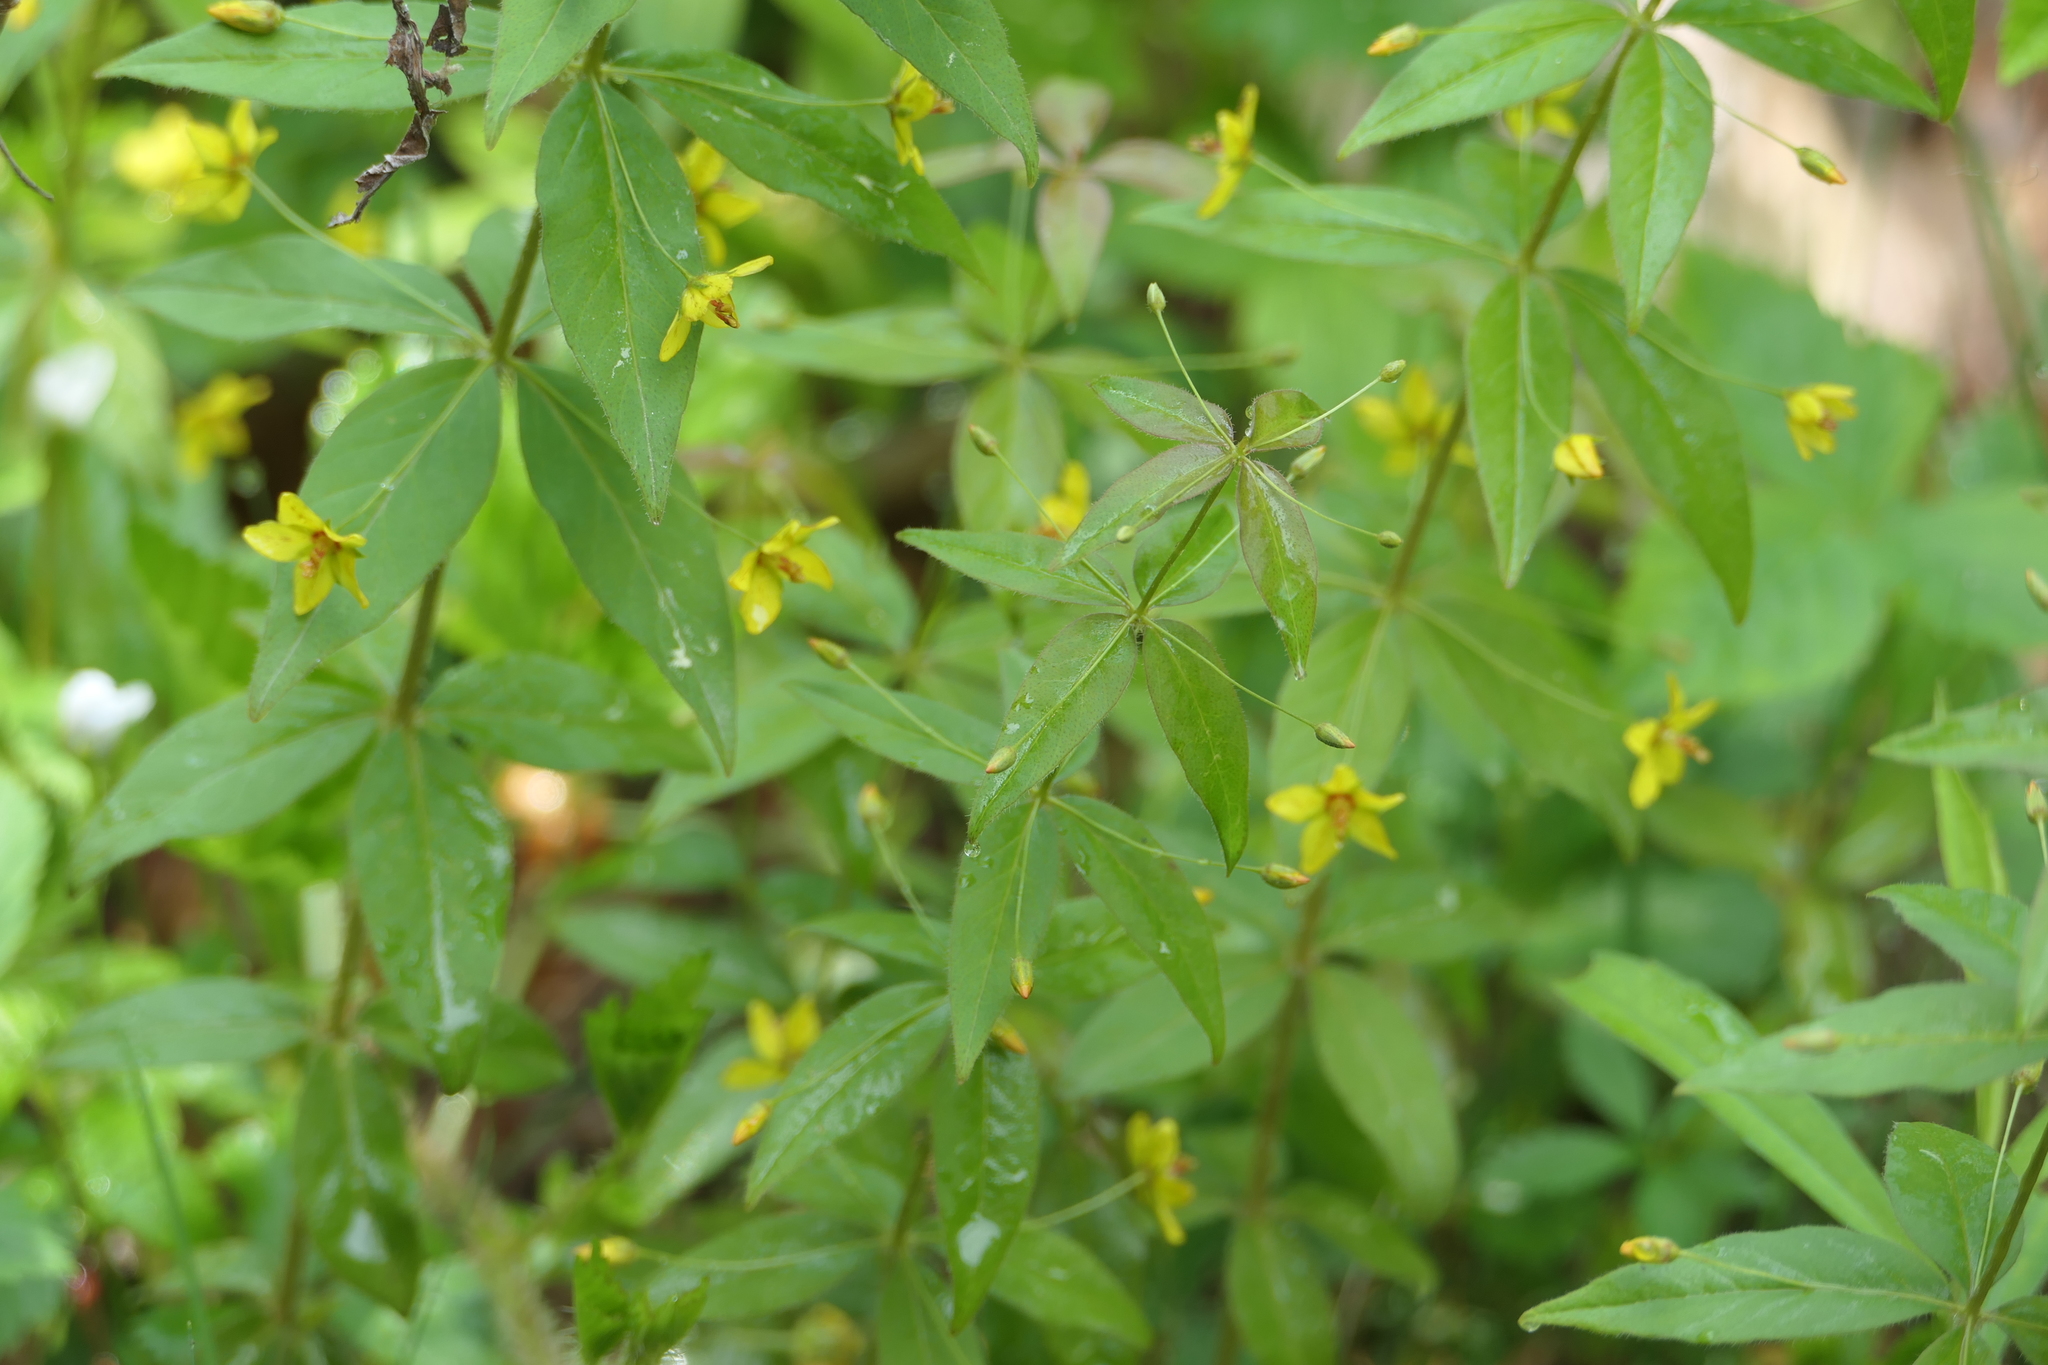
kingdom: Plantae
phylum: Tracheophyta
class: Magnoliopsida
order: Ericales
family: Primulaceae
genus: Lysimachia
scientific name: Lysimachia quadrifolia
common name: Whorled loosestrife
